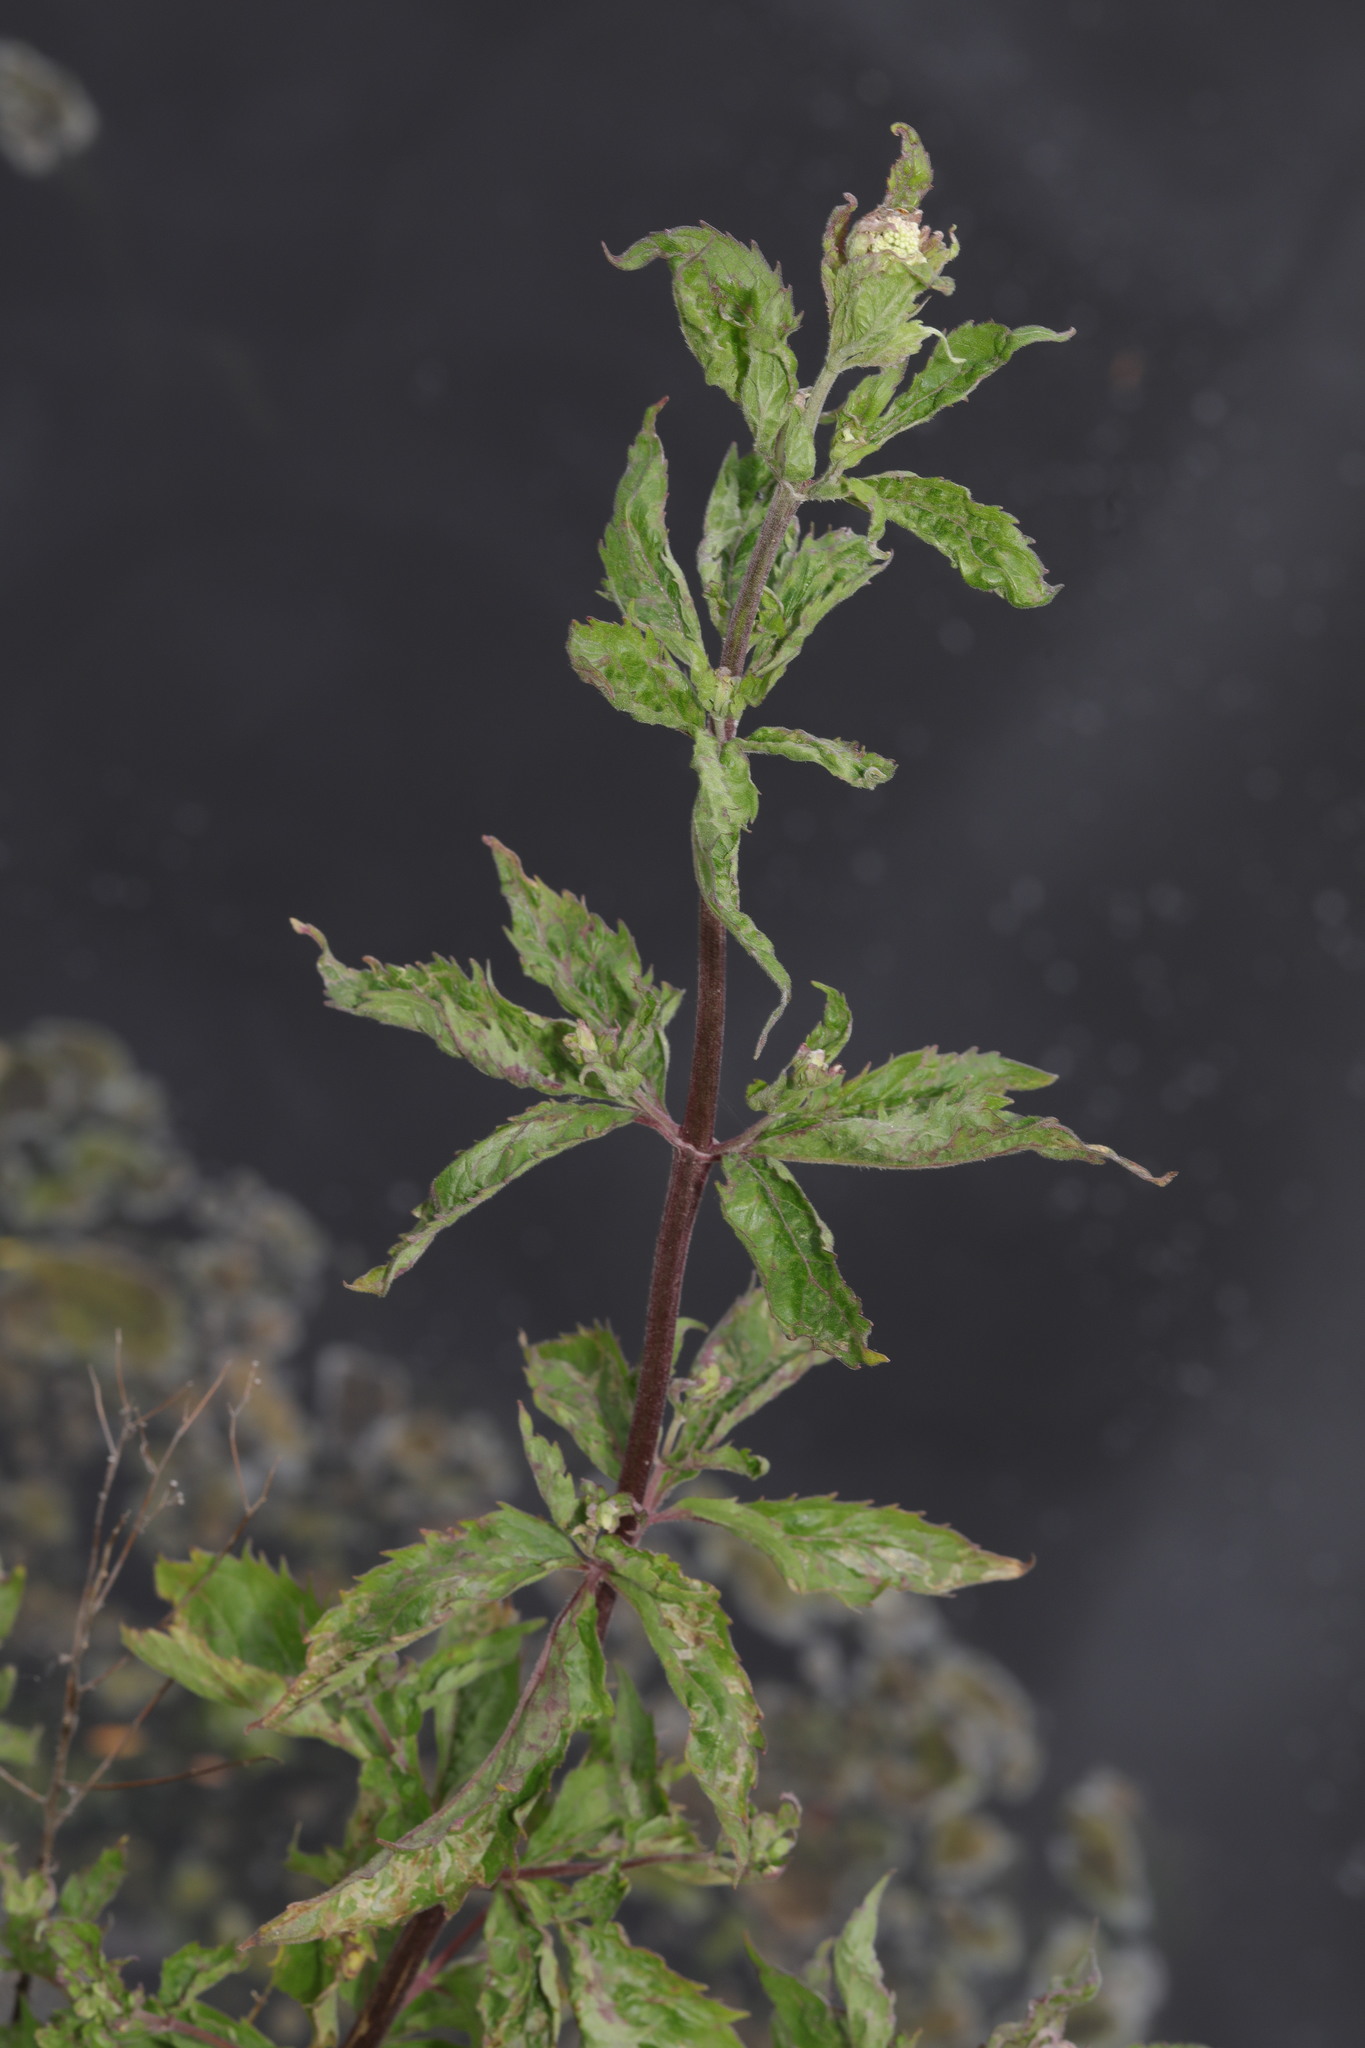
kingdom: Plantae
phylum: Tracheophyta
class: Magnoliopsida
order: Asterales
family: Asteraceae
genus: Eupatorium
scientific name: Eupatorium cannabinum
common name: Hemp-agrimony
